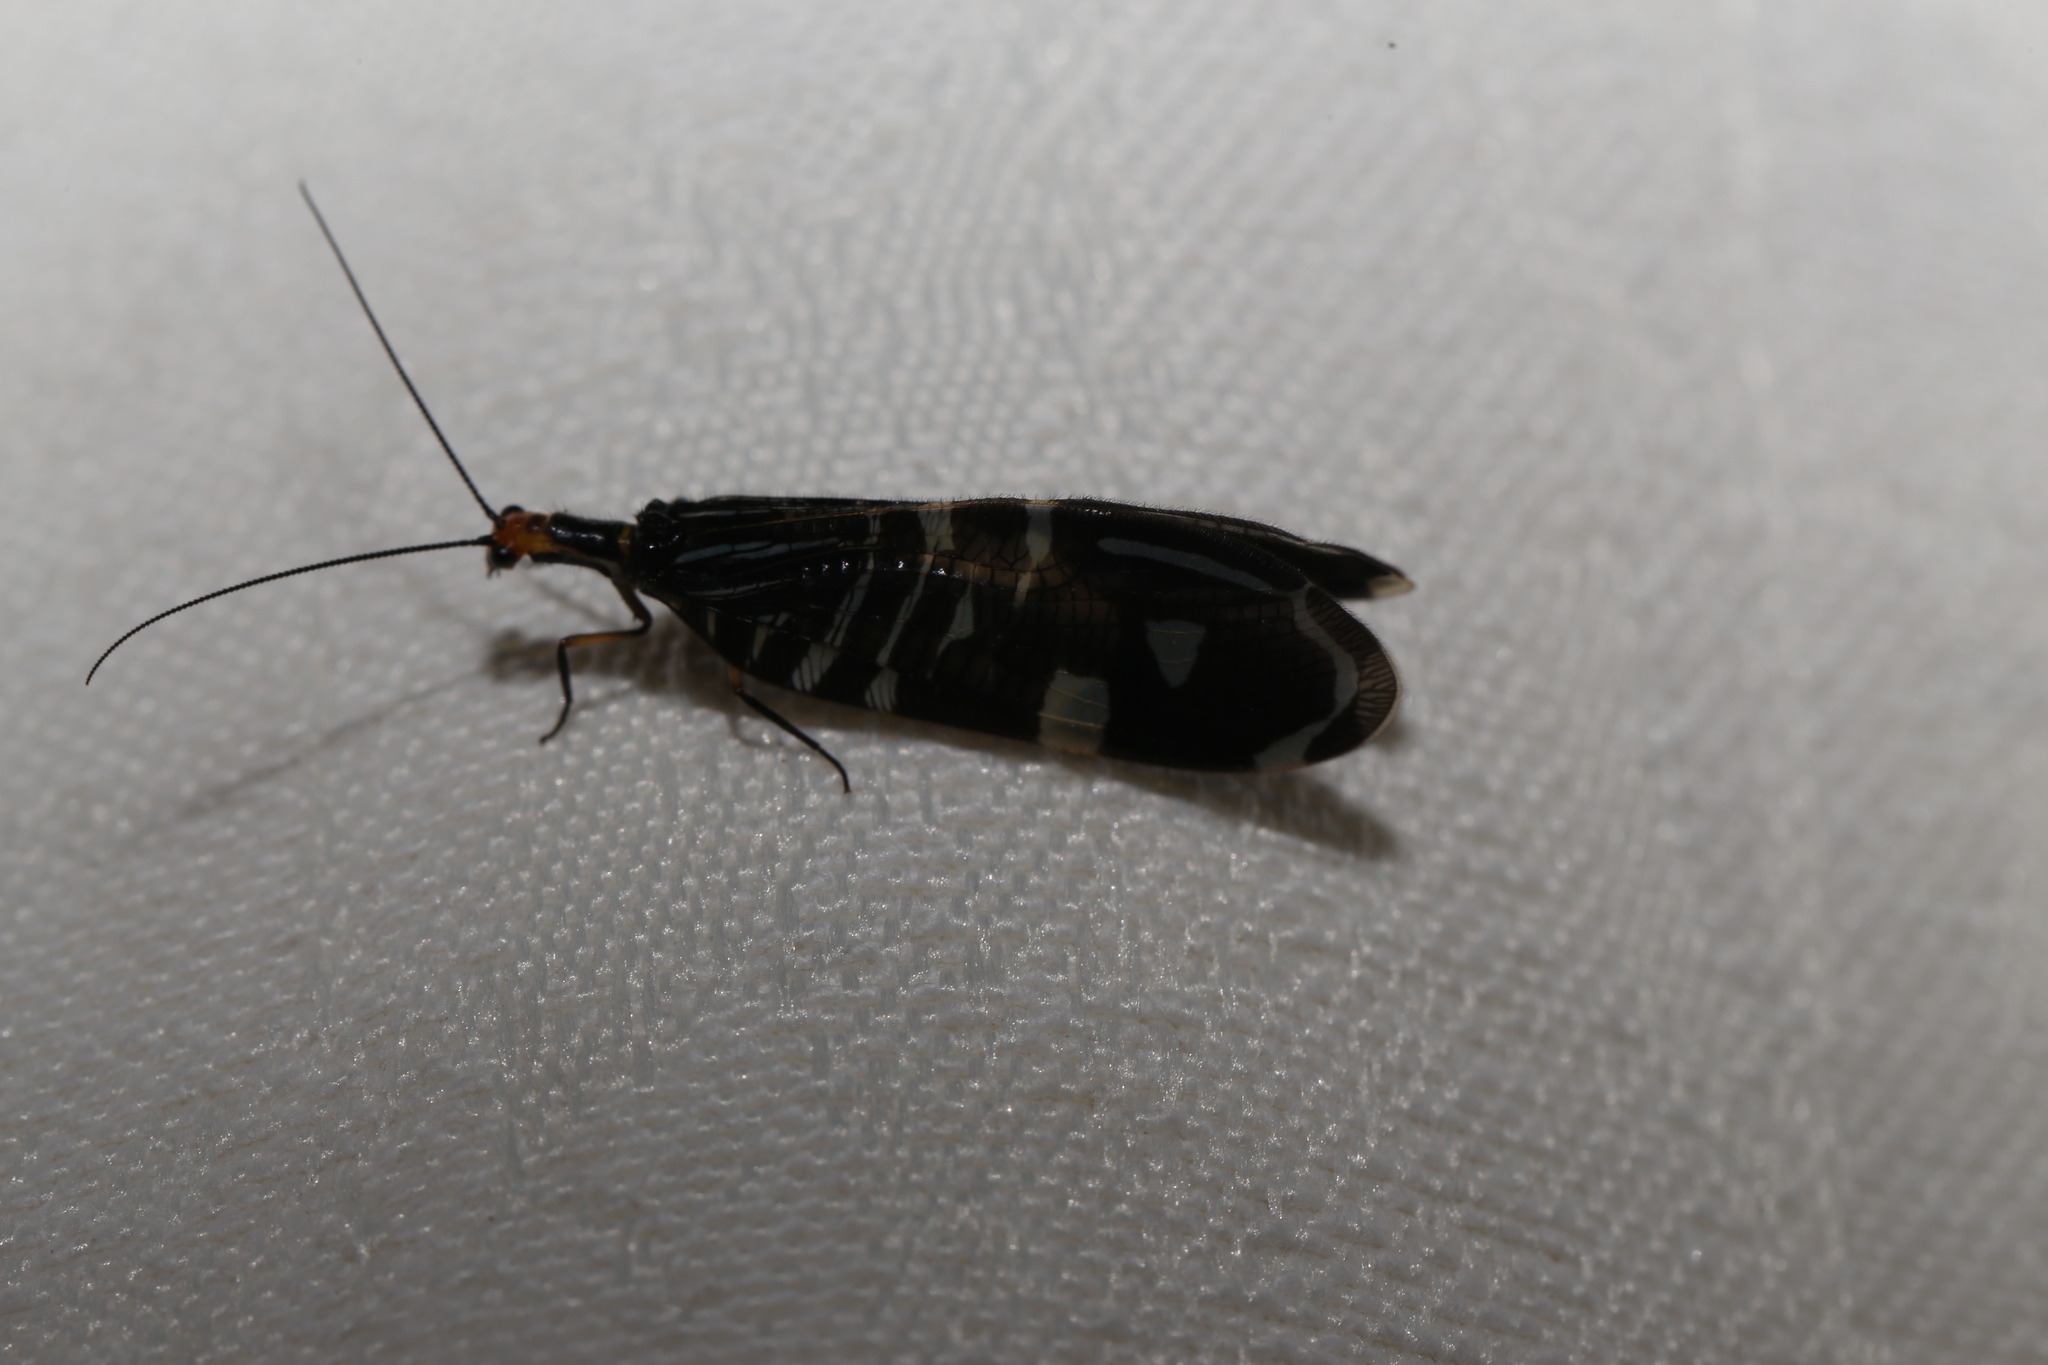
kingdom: Animalia
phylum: Arthropoda
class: Insecta
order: Neuroptera
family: Osmylidae
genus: Porismus
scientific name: Porismus strigatus
